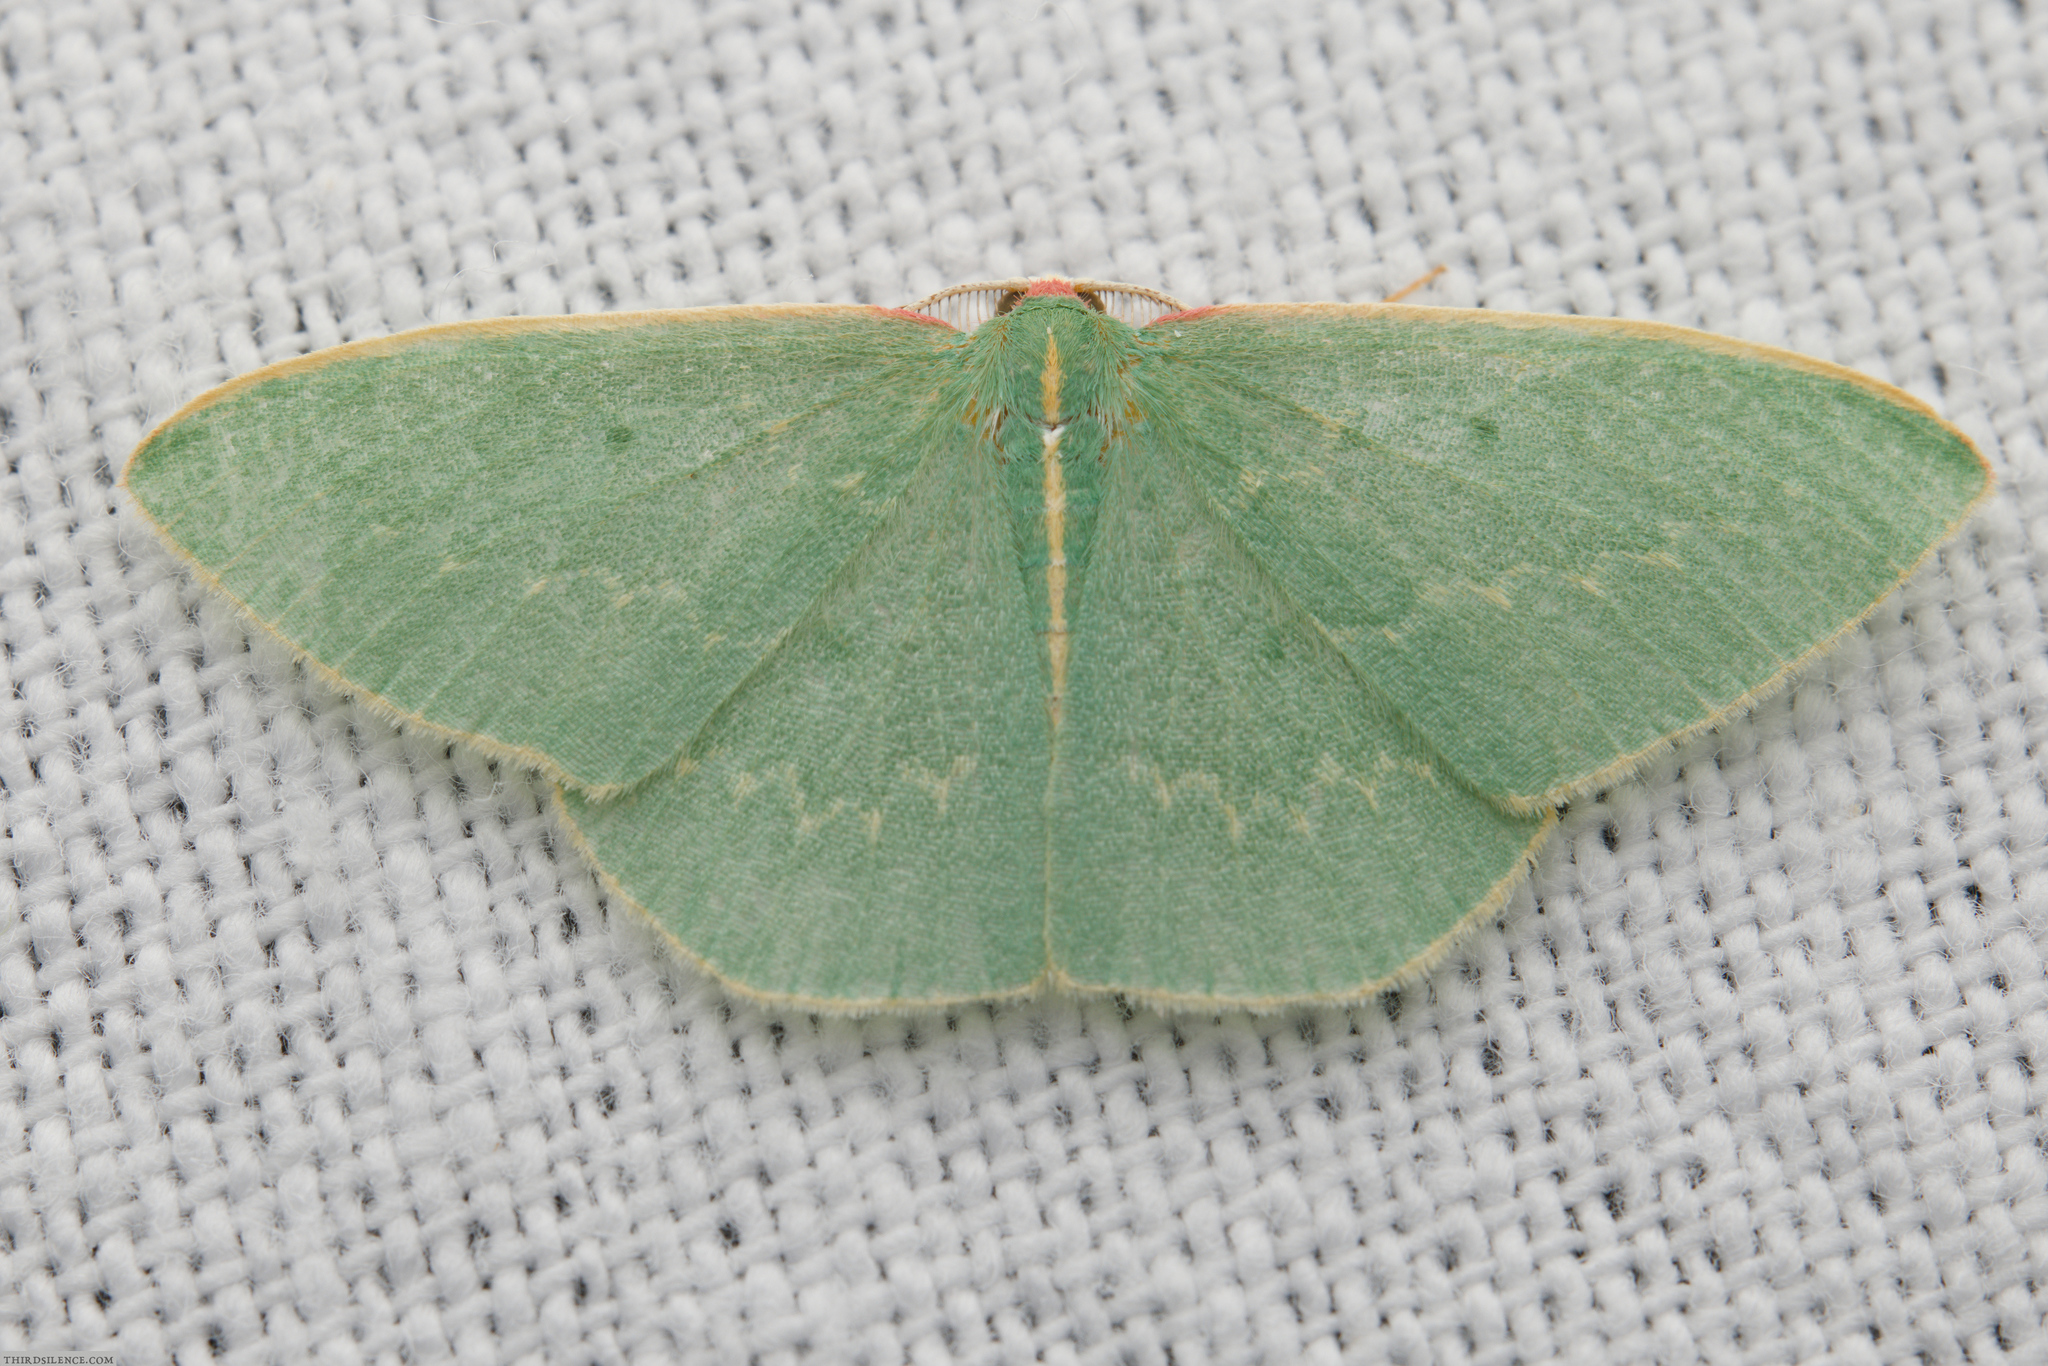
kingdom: Animalia
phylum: Arthropoda
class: Insecta
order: Lepidoptera
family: Geometridae
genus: Chlorocoma
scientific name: Chlorocoma dichloraria
